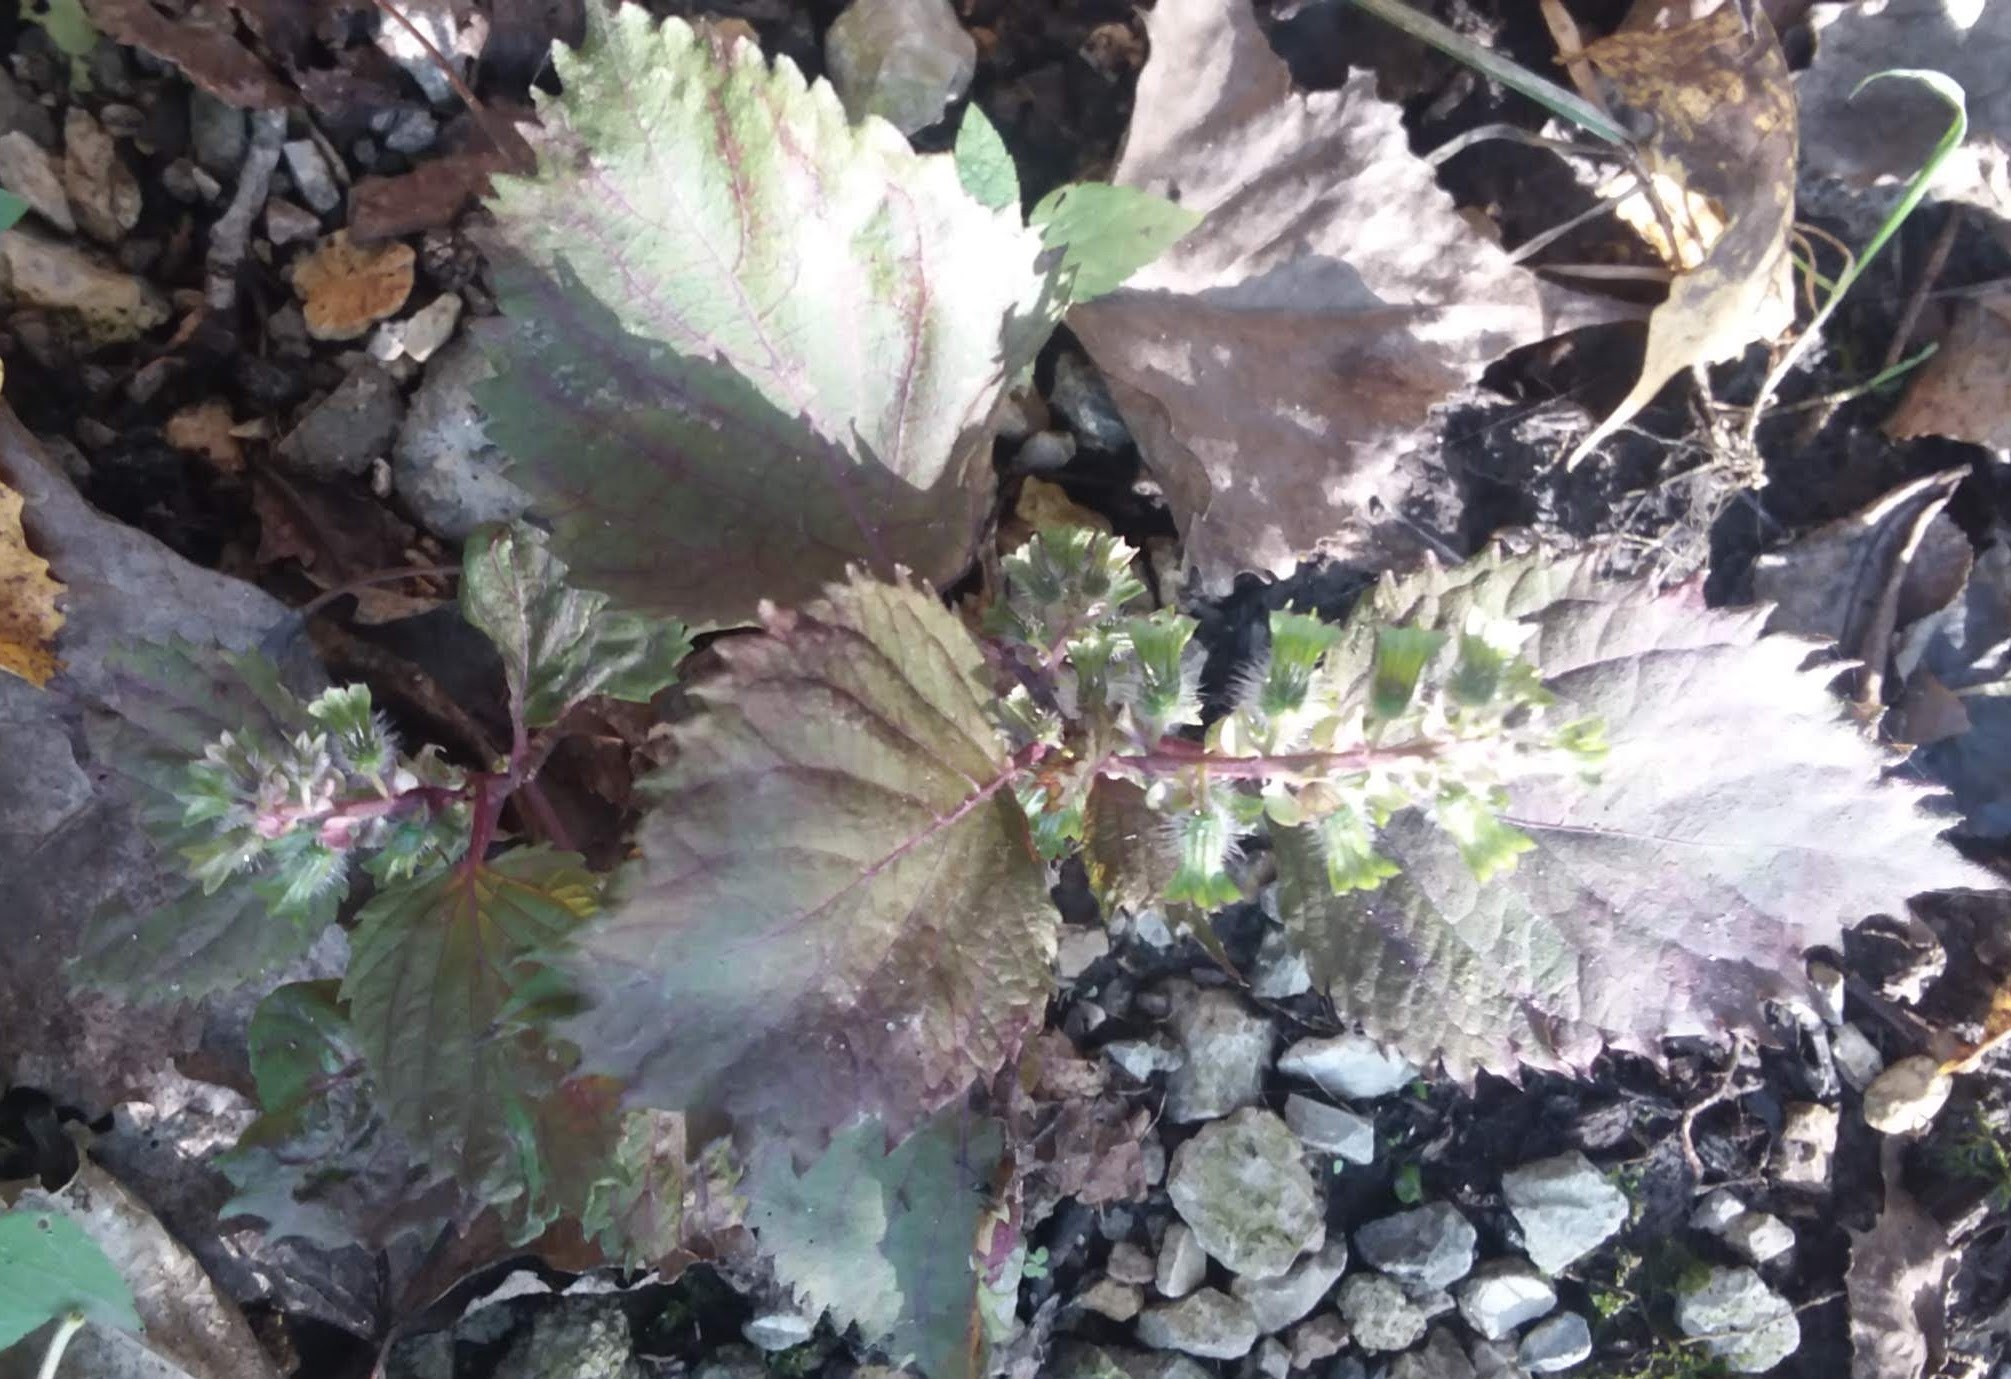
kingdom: Plantae
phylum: Tracheophyta
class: Magnoliopsida
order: Lamiales
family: Lamiaceae
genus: Perilla
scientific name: Perilla frutescens
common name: Perilla
